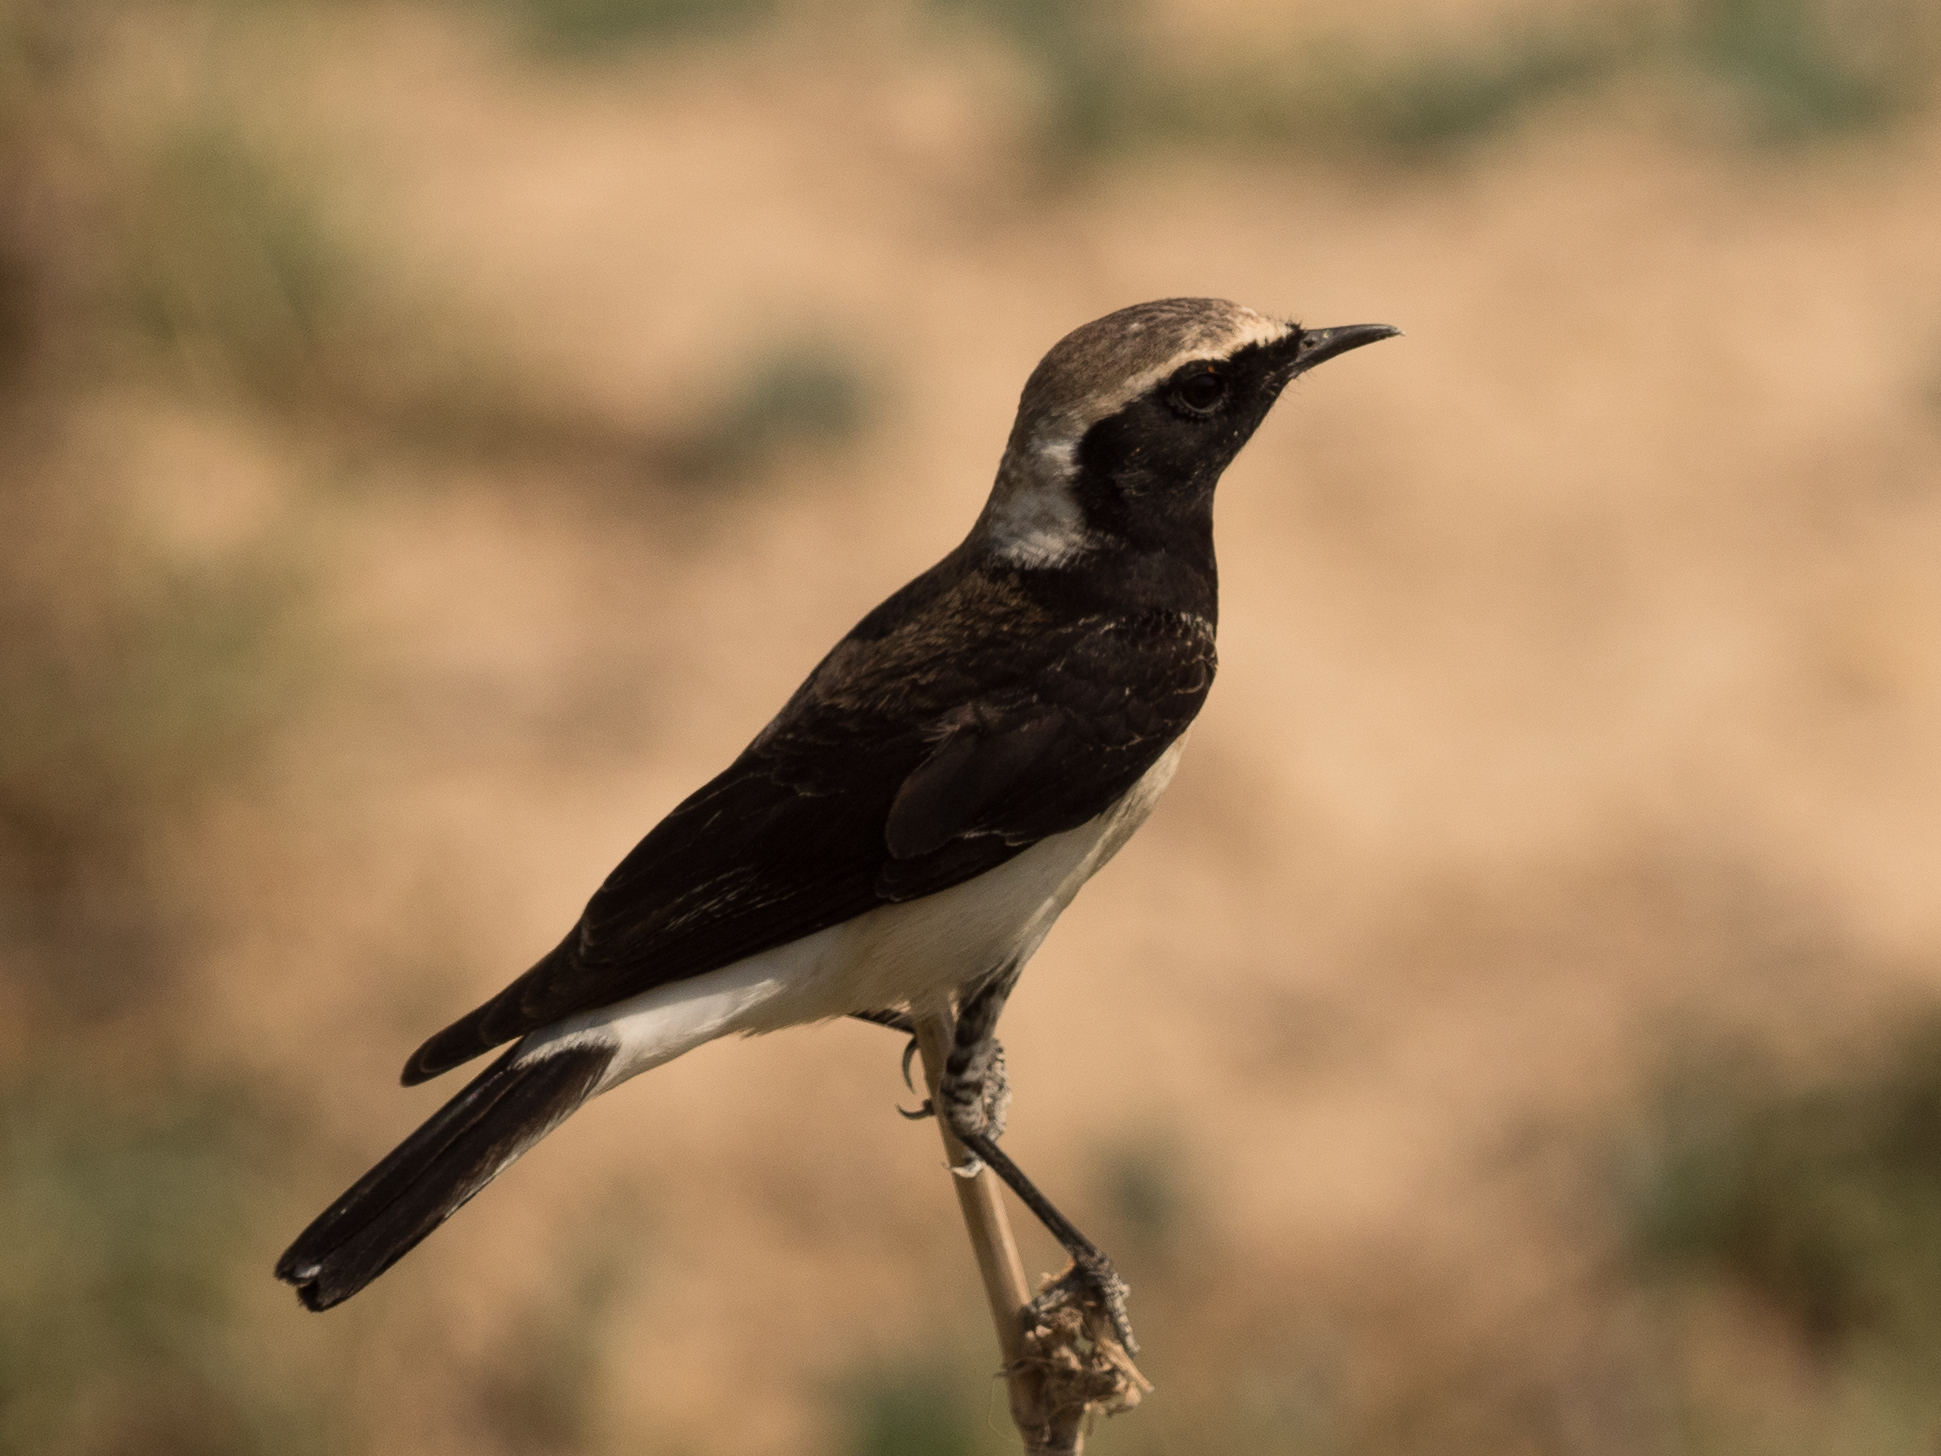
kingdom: Animalia
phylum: Chordata
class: Aves
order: Passeriformes
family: Muscicapidae
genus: Oenanthe
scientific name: Oenanthe lugens
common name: Mourning wheatear
